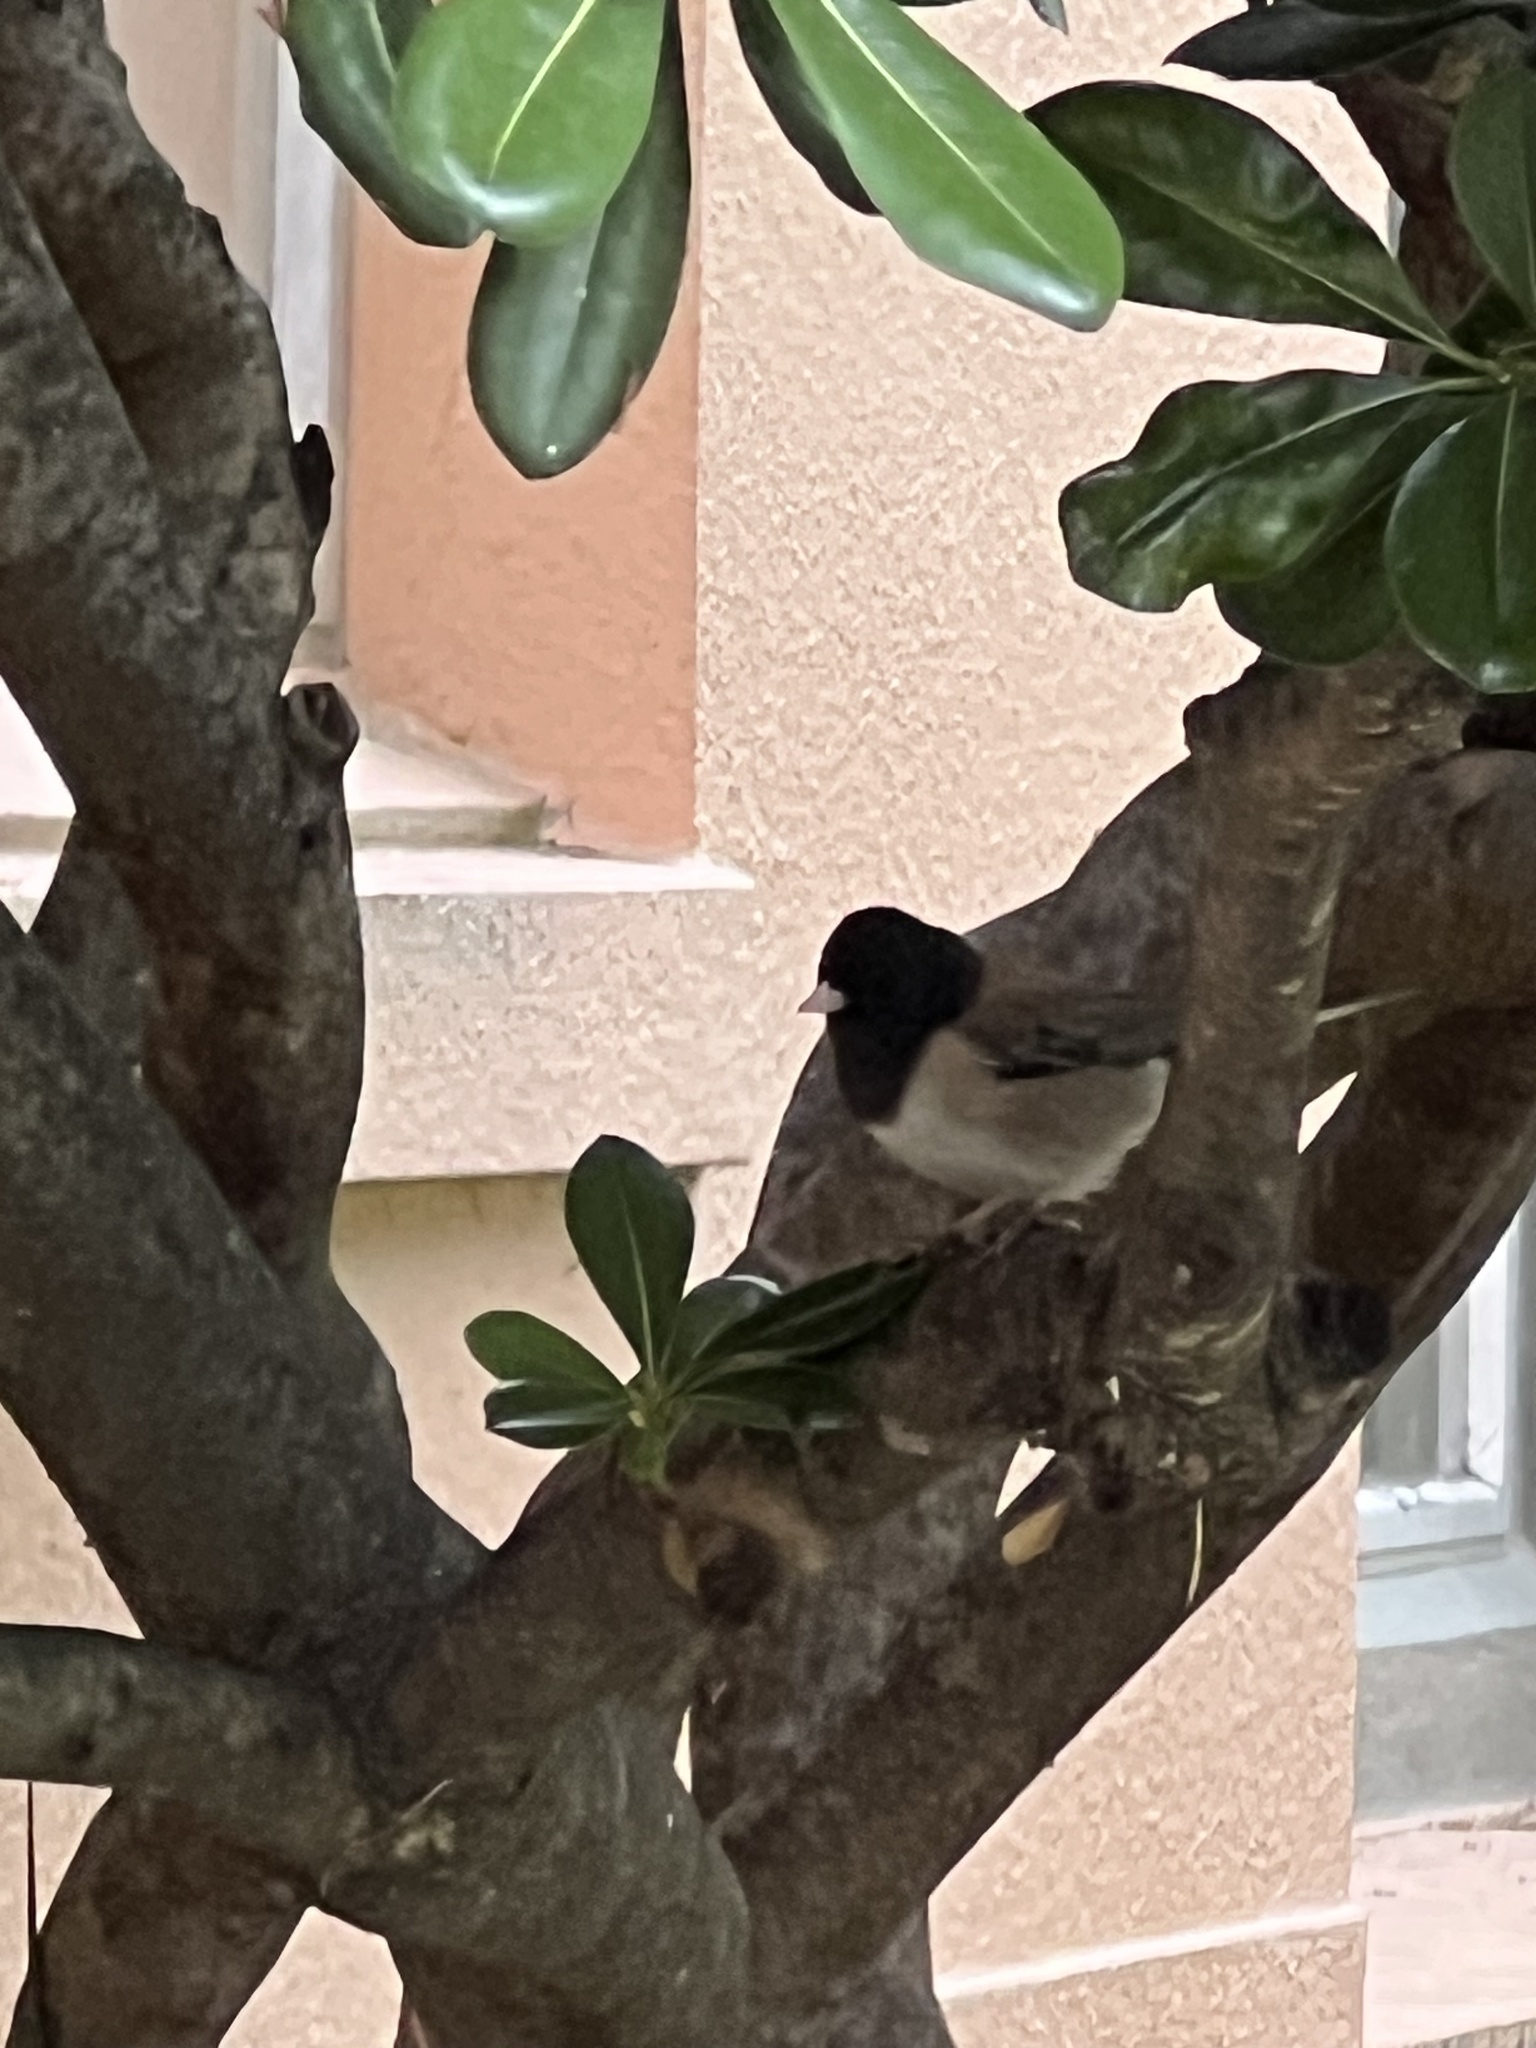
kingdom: Animalia
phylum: Chordata
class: Aves
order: Passeriformes
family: Passerellidae
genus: Junco
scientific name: Junco hyemalis
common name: Dark-eyed junco
